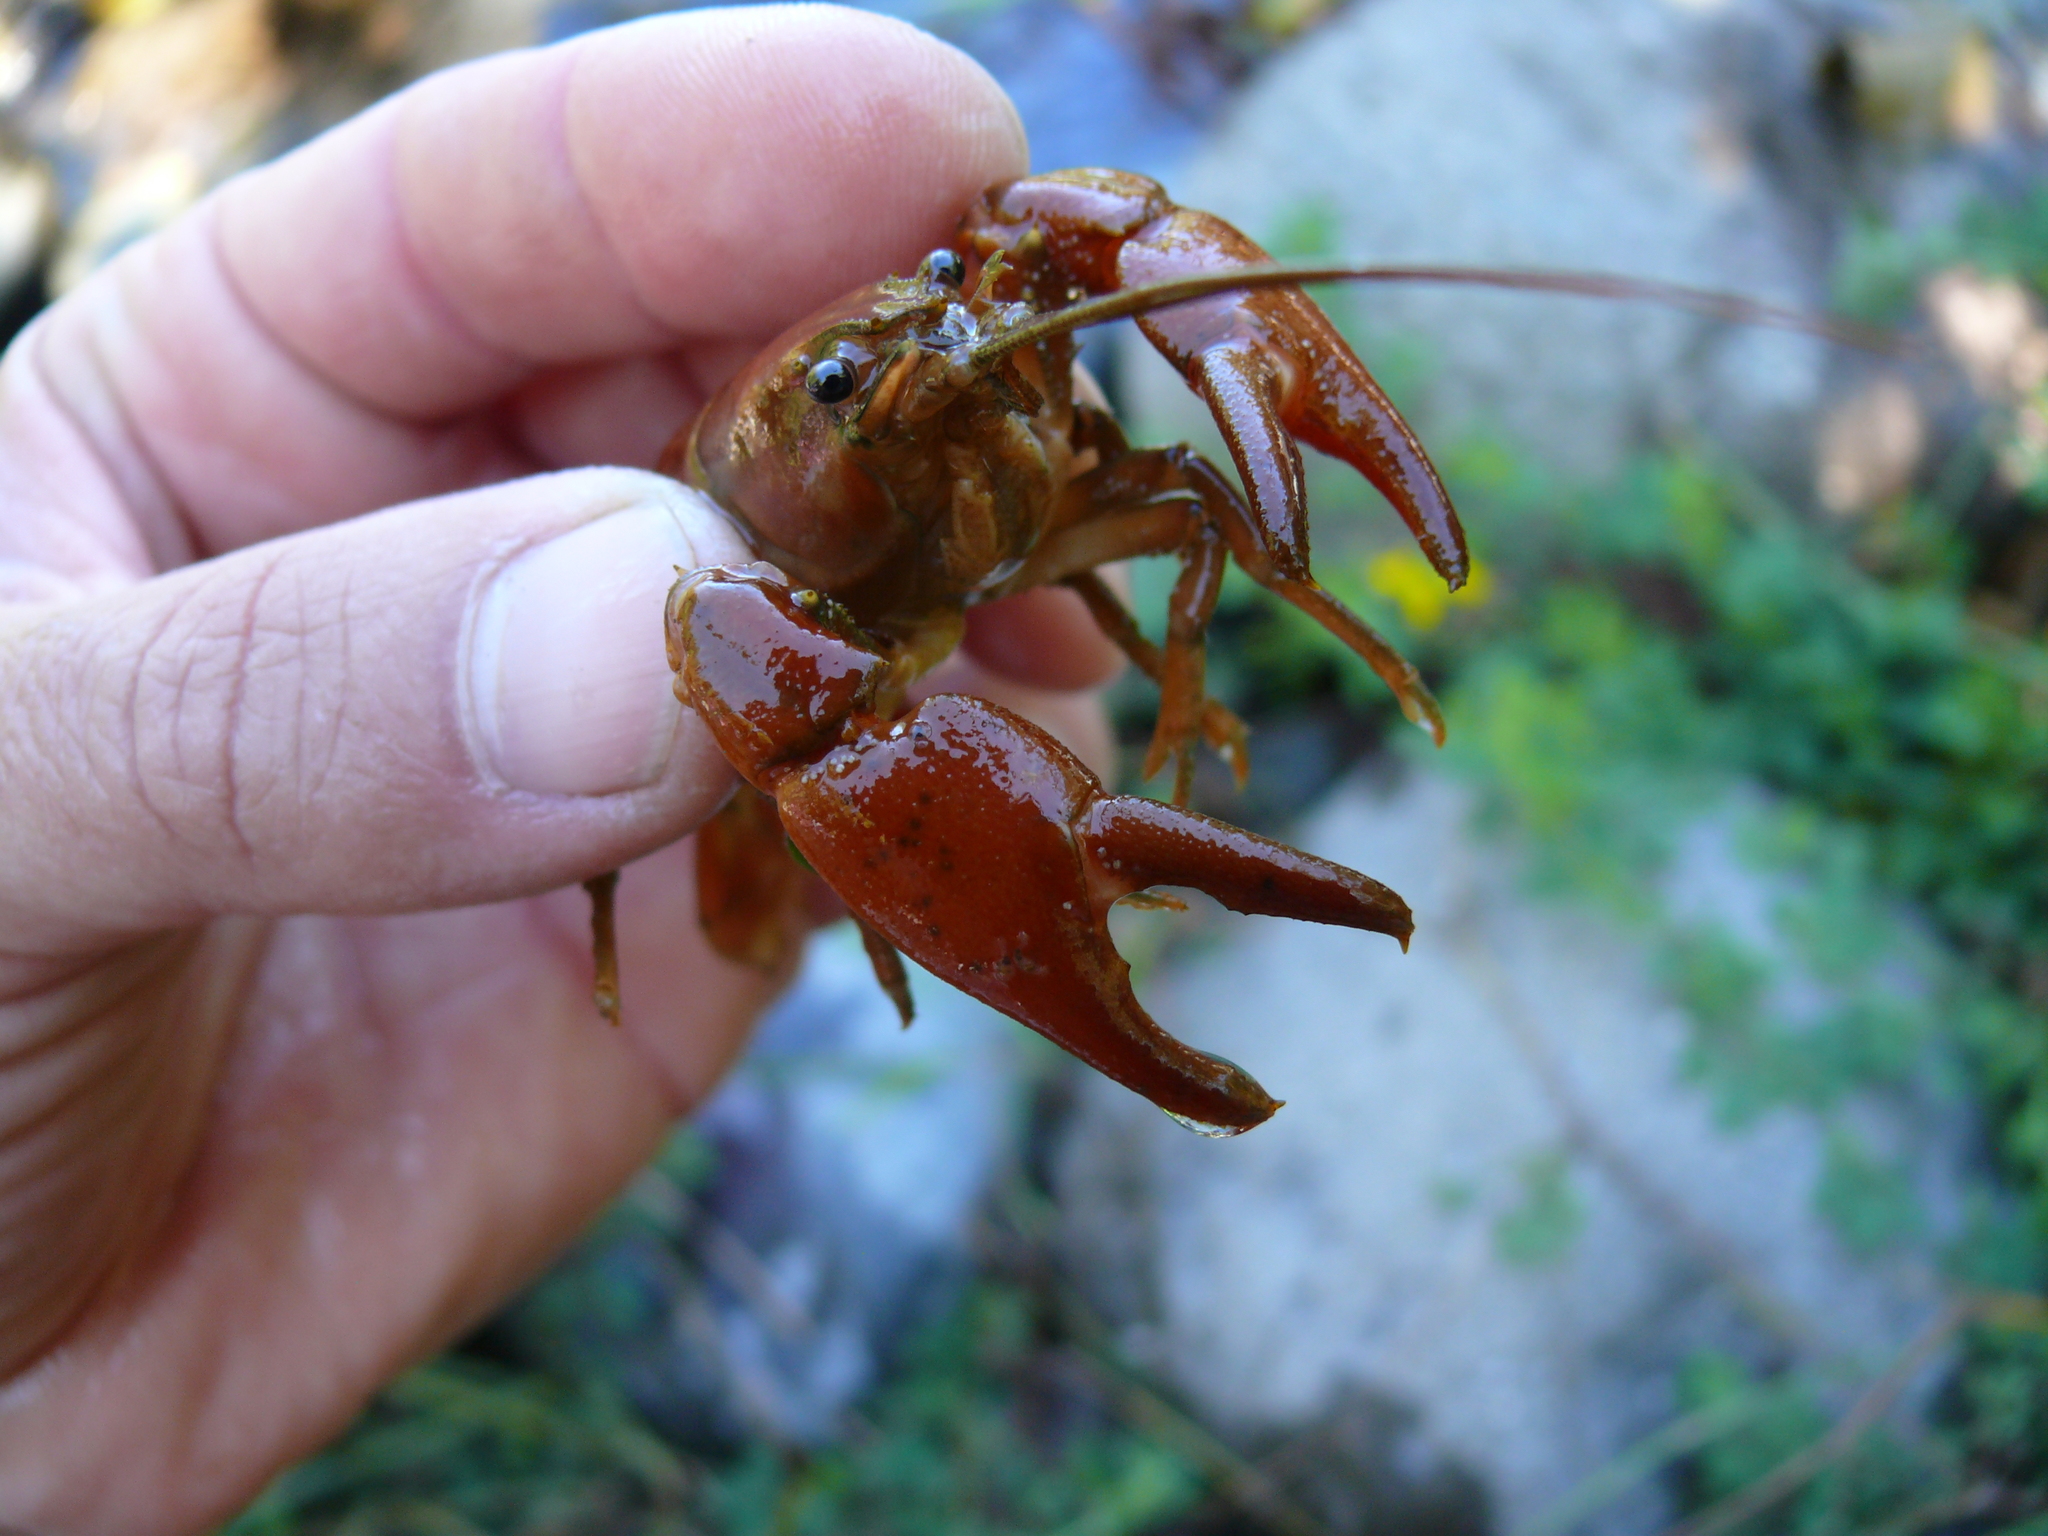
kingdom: Animalia
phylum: Arthropoda
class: Malacostraca
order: Decapoda
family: Astacidae
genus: Pacifastacus
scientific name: Pacifastacus leniusculus
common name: Signal crayfish
